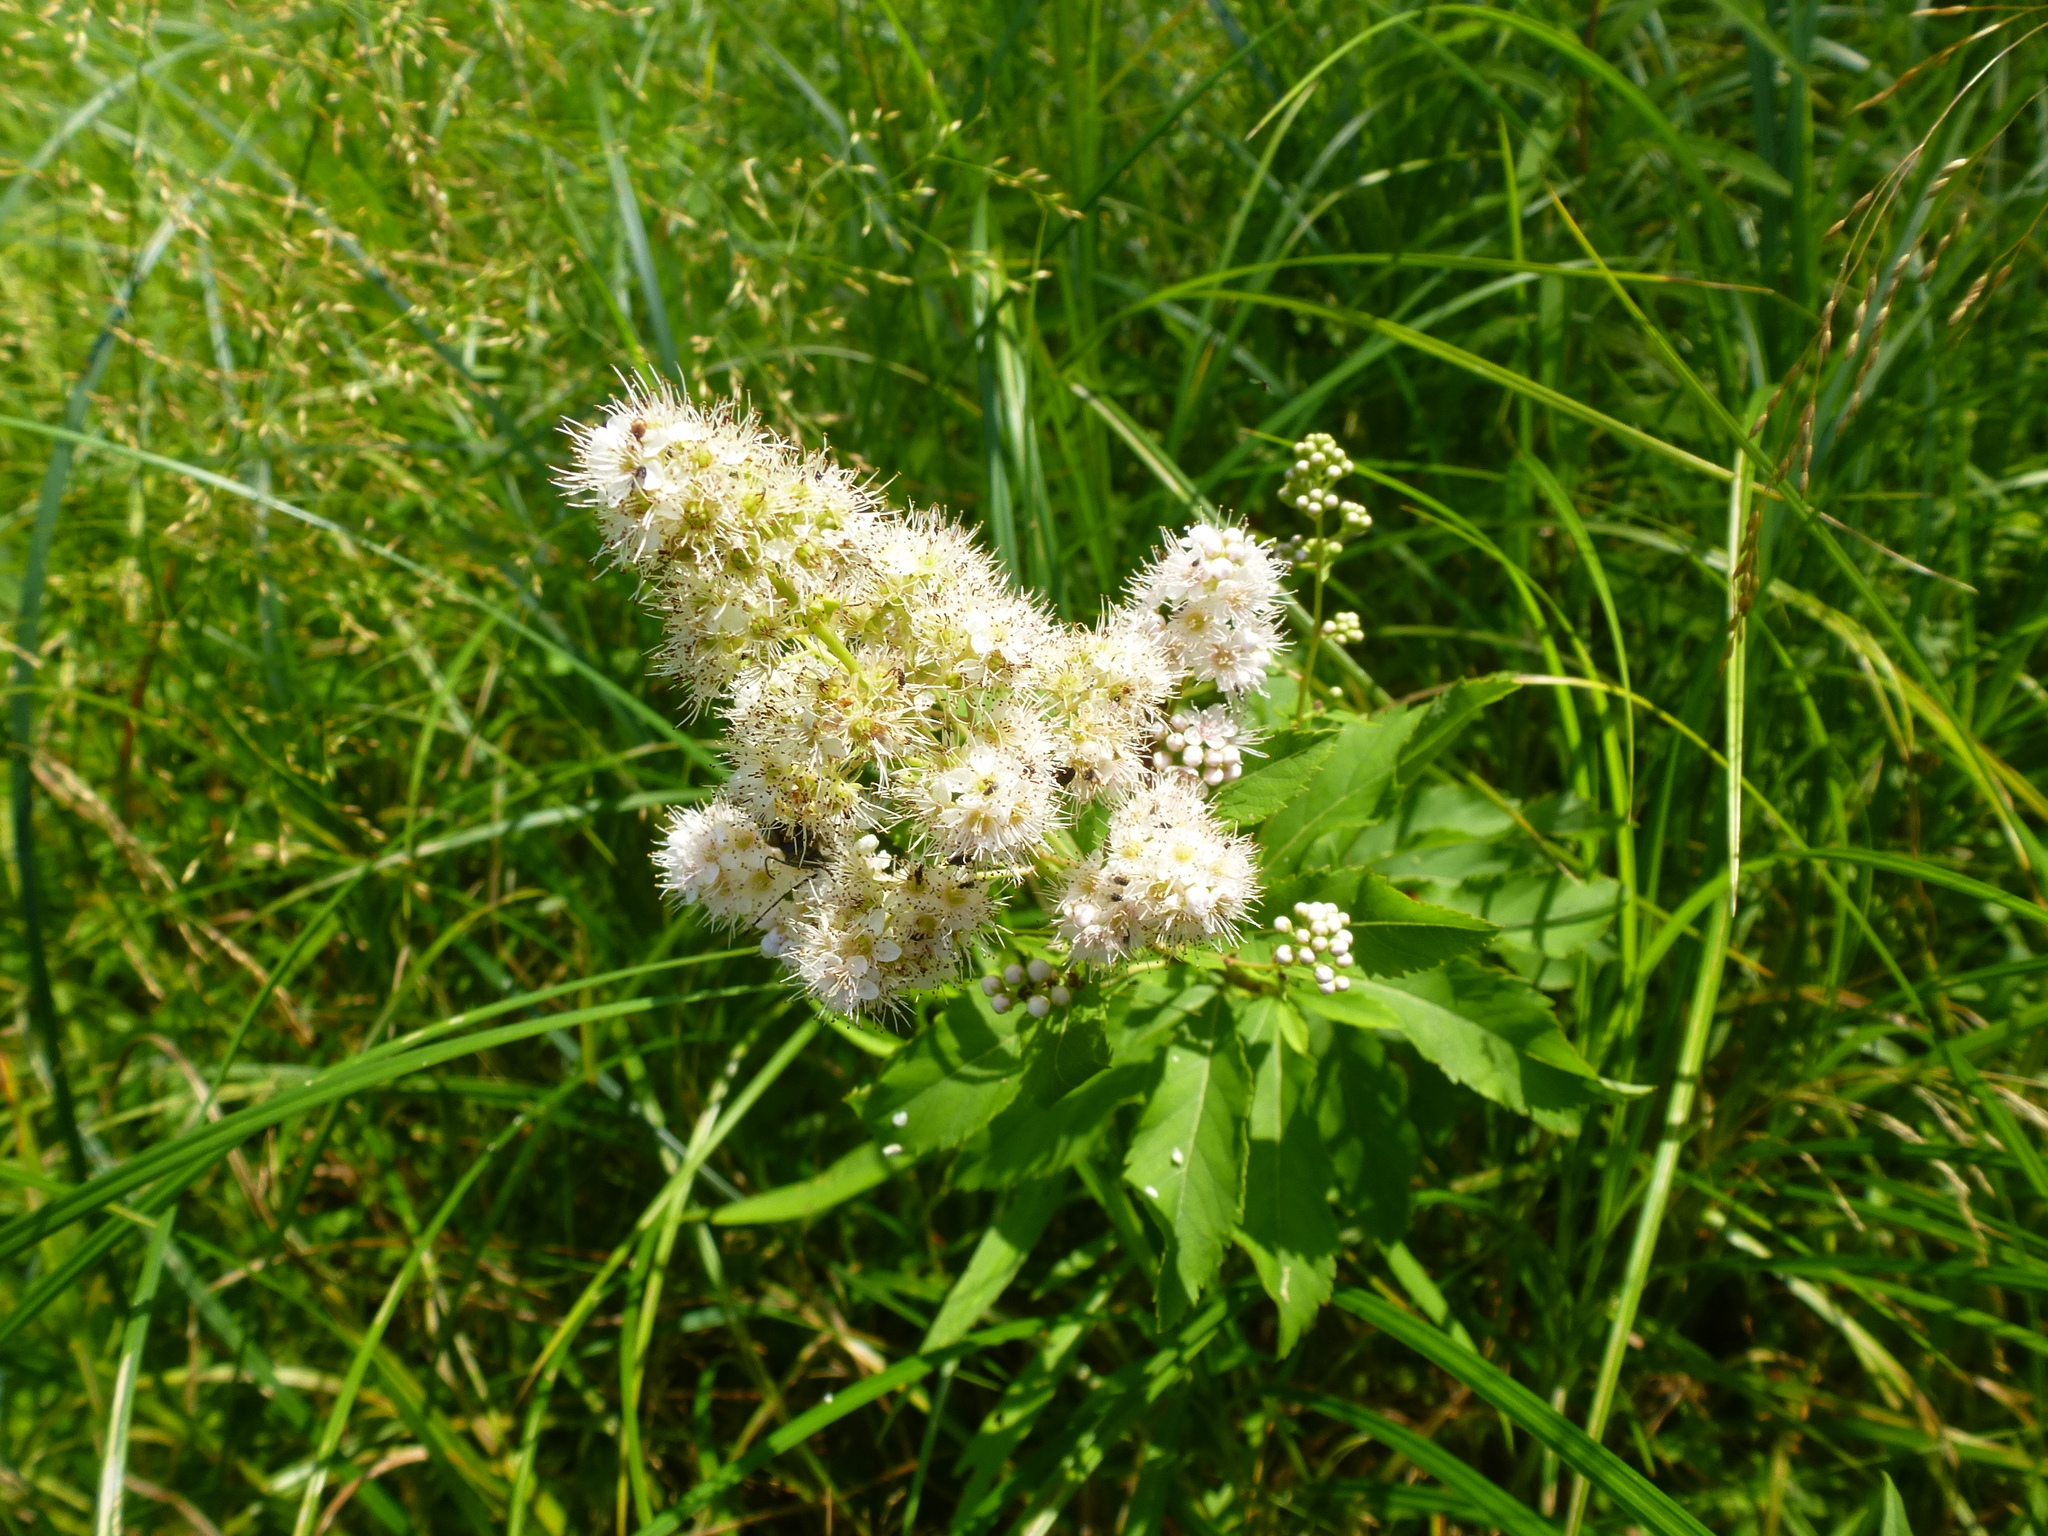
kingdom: Plantae
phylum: Tracheophyta
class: Magnoliopsida
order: Rosales
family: Rosaceae
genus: Spiraea
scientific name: Spiraea alba
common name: Pale bridewort
